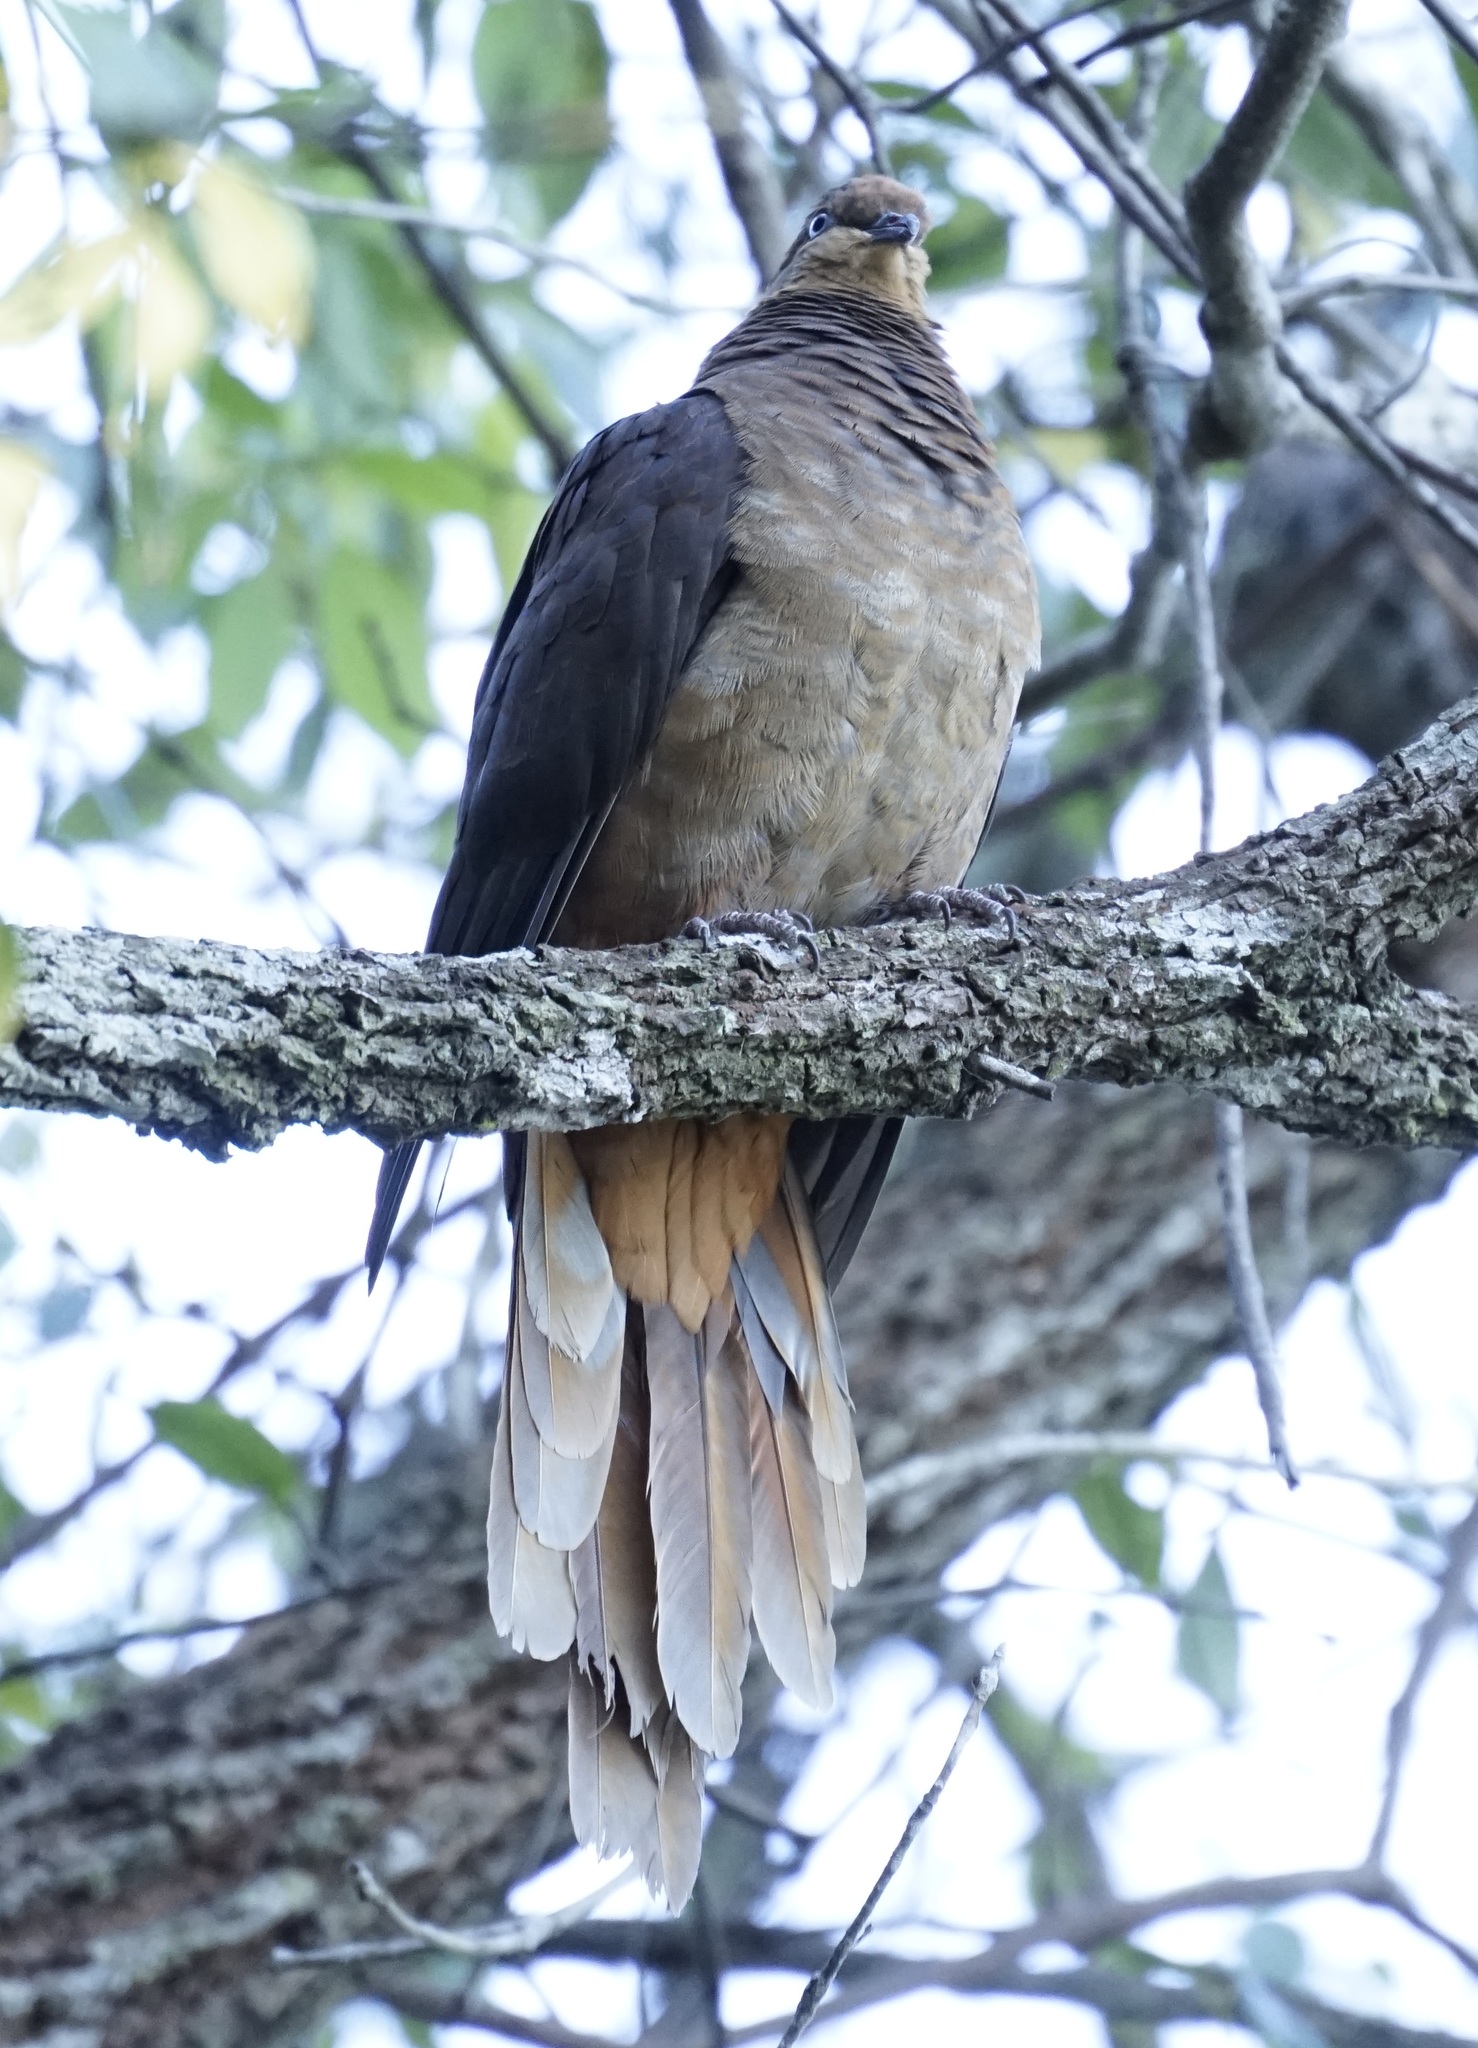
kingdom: Animalia
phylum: Chordata
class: Aves
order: Columbiformes
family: Columbidae
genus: Macropygia
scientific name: Macropygia phasianella
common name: Brown cuckoo-dove
